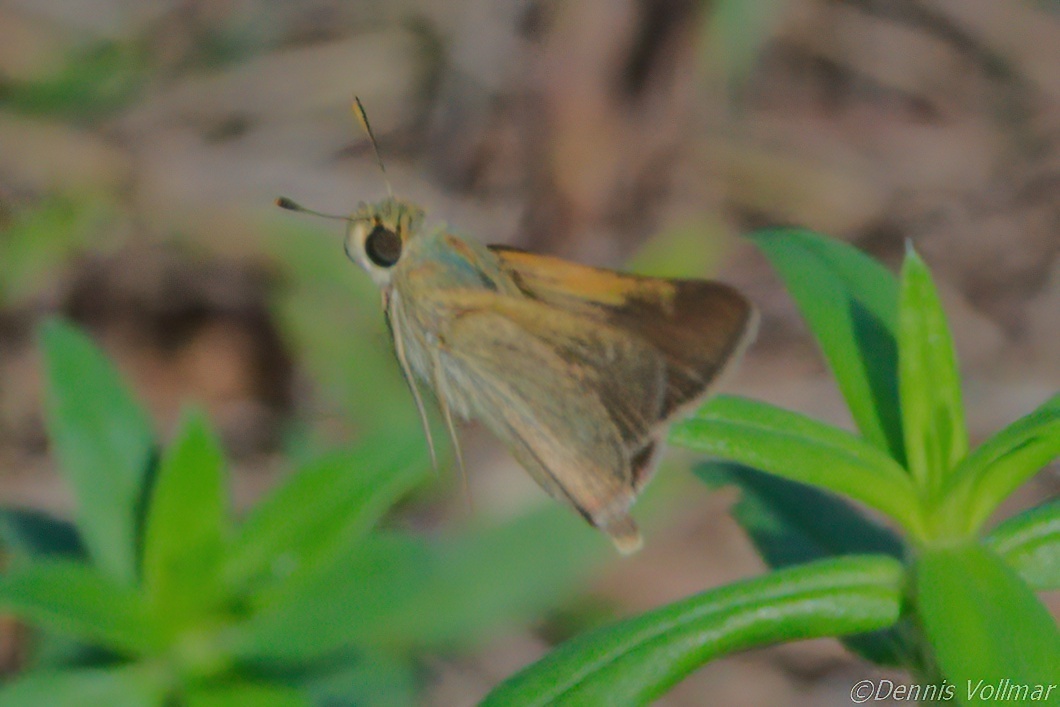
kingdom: Animalia
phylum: Arthropoda
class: Insecta
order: Lepidoptera
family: Hesperiidae
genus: Polites
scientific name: Polites themistocles
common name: Tawny-edged skipper
